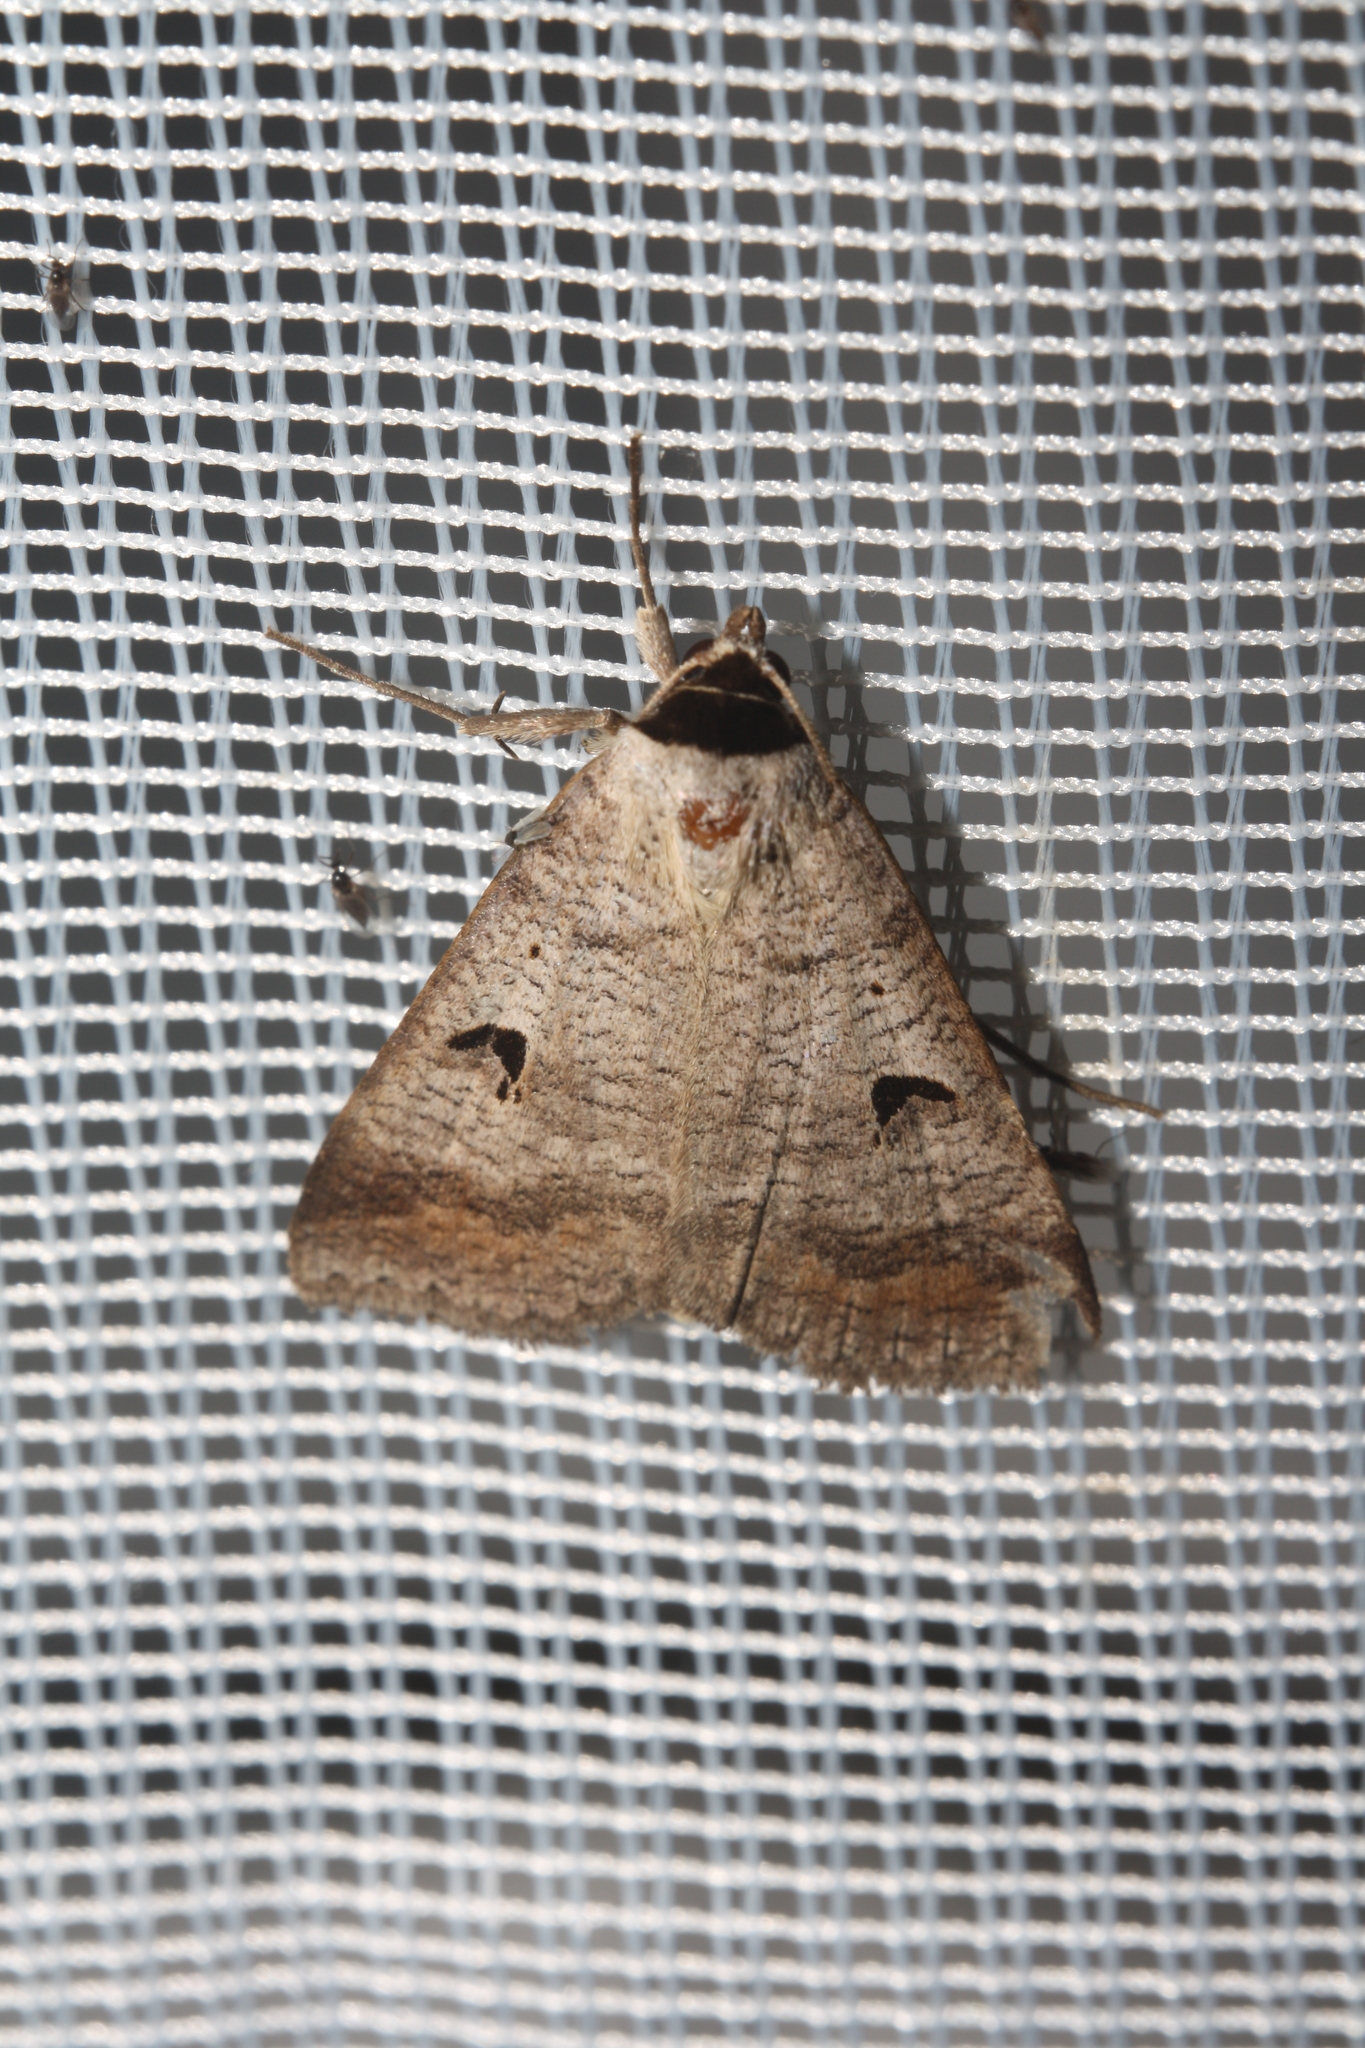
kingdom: Animalia
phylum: Arthropoda
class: Insecta
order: Lepidoptera
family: Erebidae
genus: Lygephila
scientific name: Lygephila pastinum
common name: Blackneck
